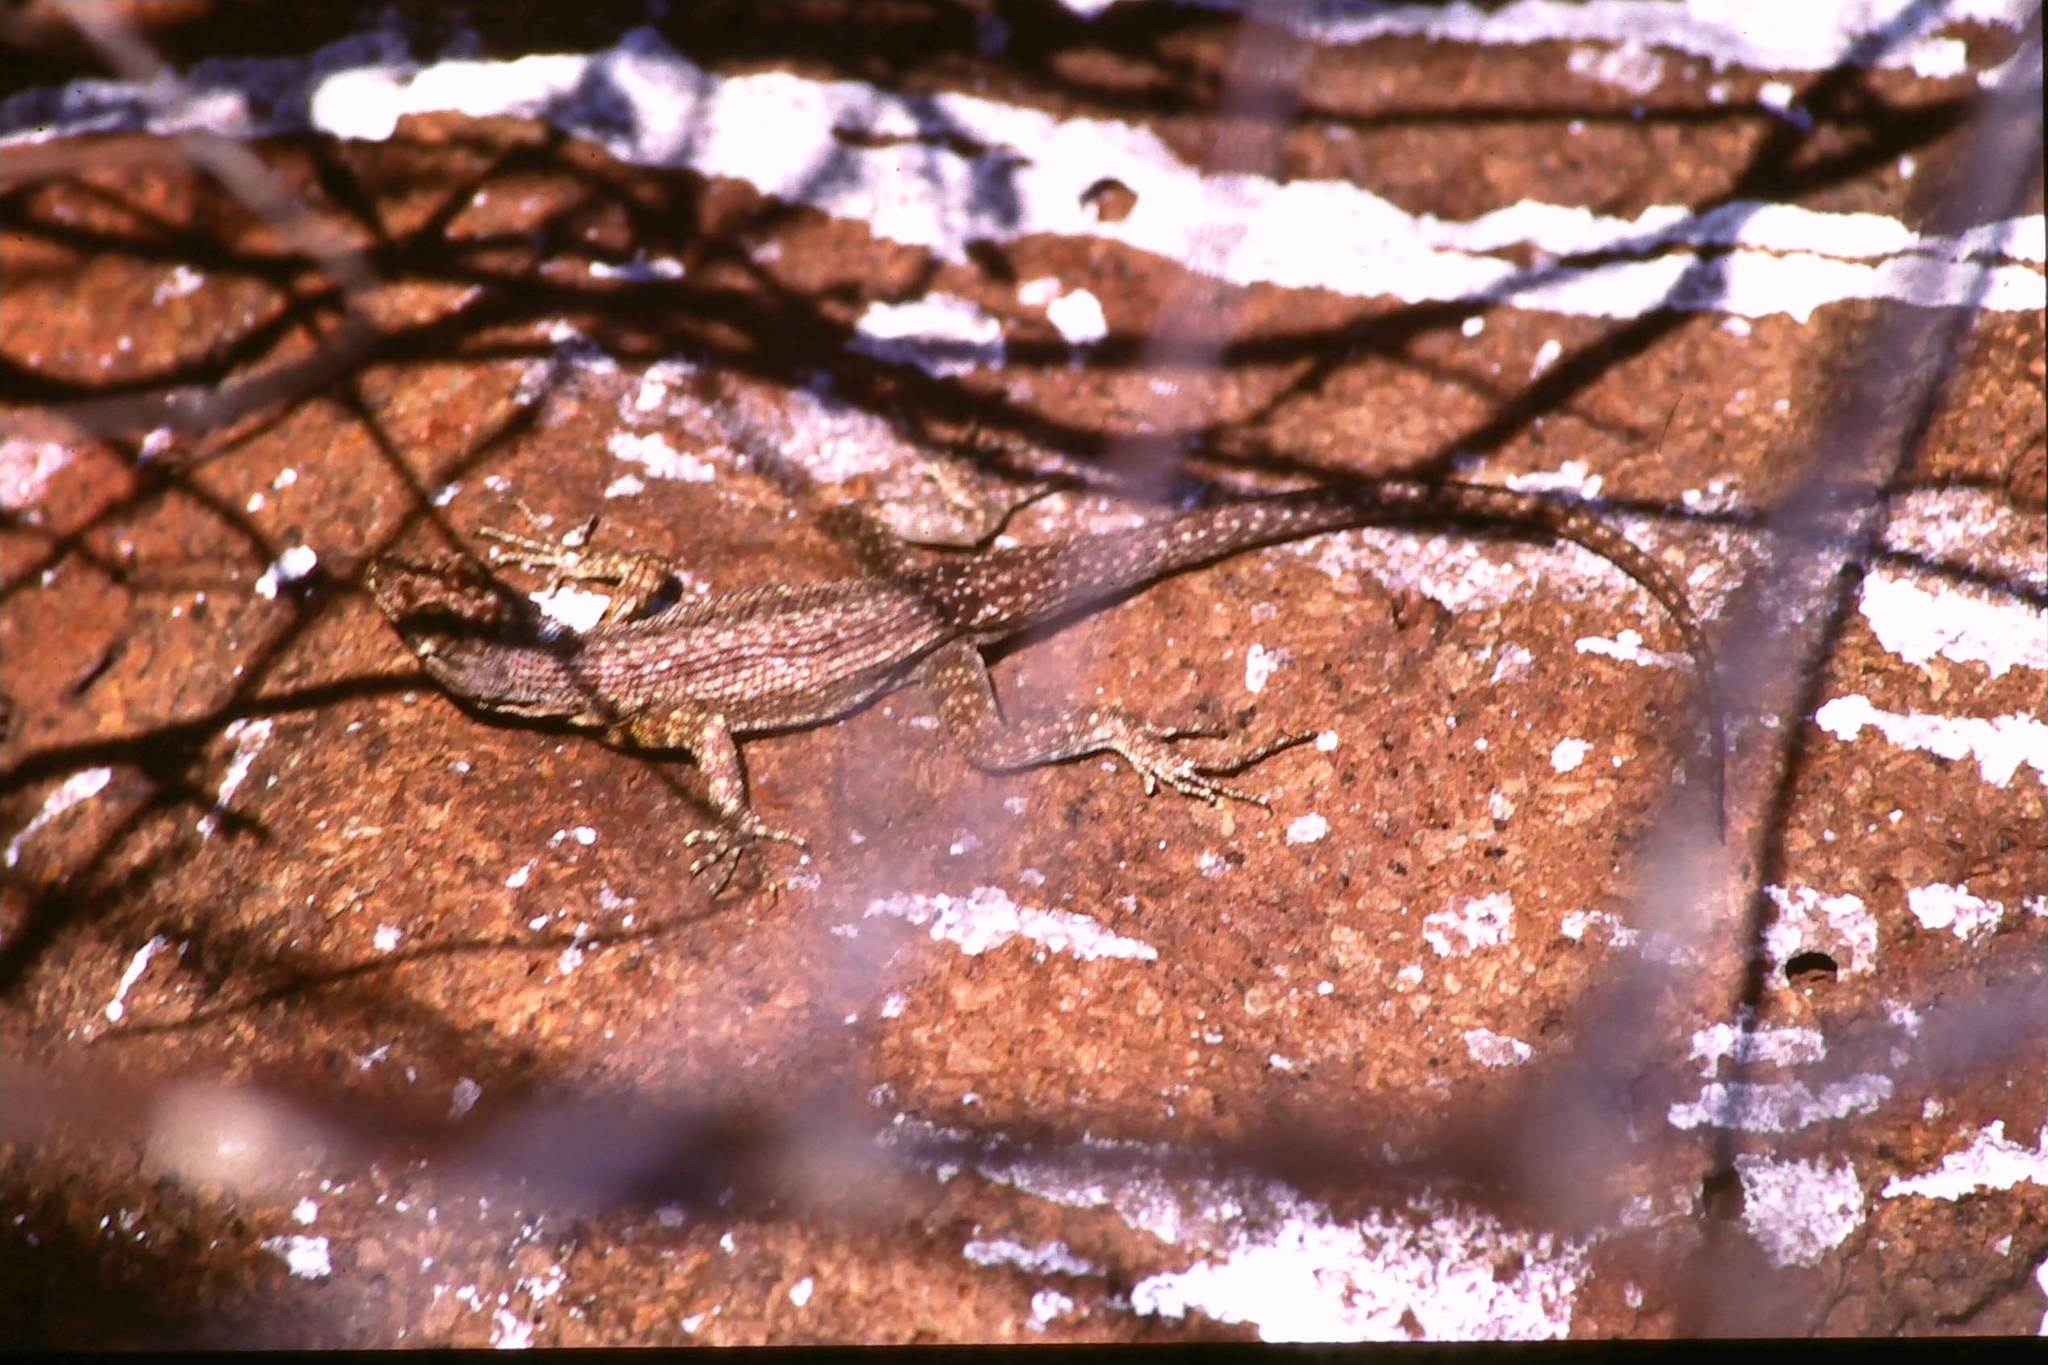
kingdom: Animalia
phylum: Chordata
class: Squamata
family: Tropiduridae
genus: Microlophus
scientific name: Microlophus indefatigabilis
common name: Galapagos lava lizard
